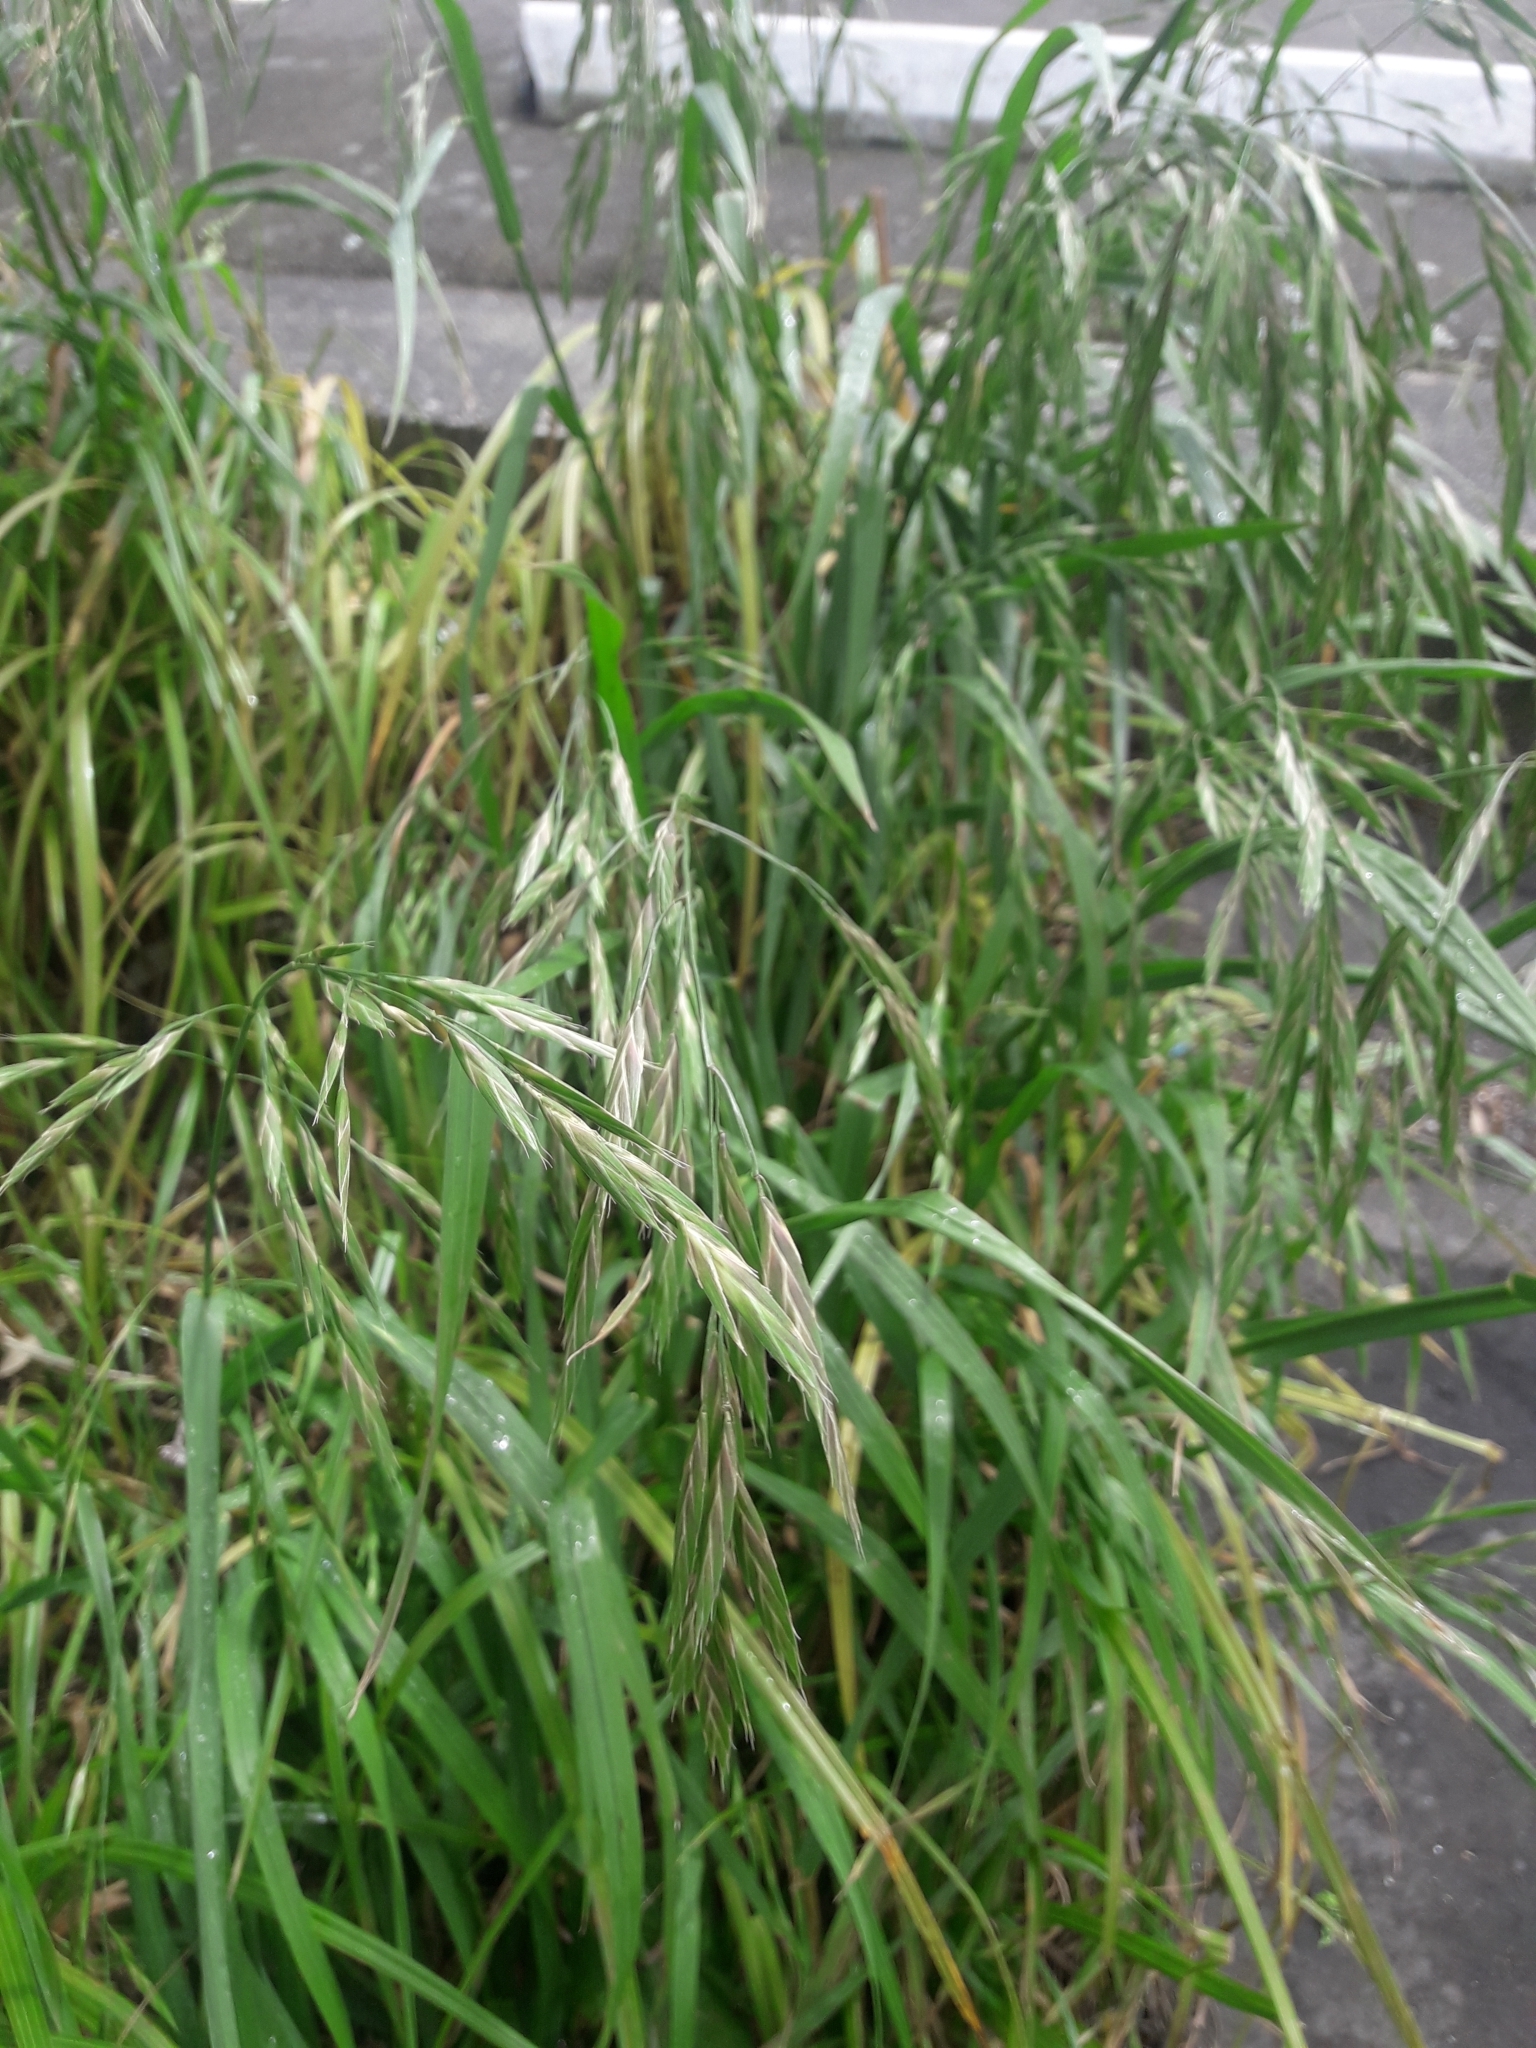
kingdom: Plantae
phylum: Tracheophyta
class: Liliopsida
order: Poales
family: Poaceae
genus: Bromus
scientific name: Bromus catharticus
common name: Rescuegrass
